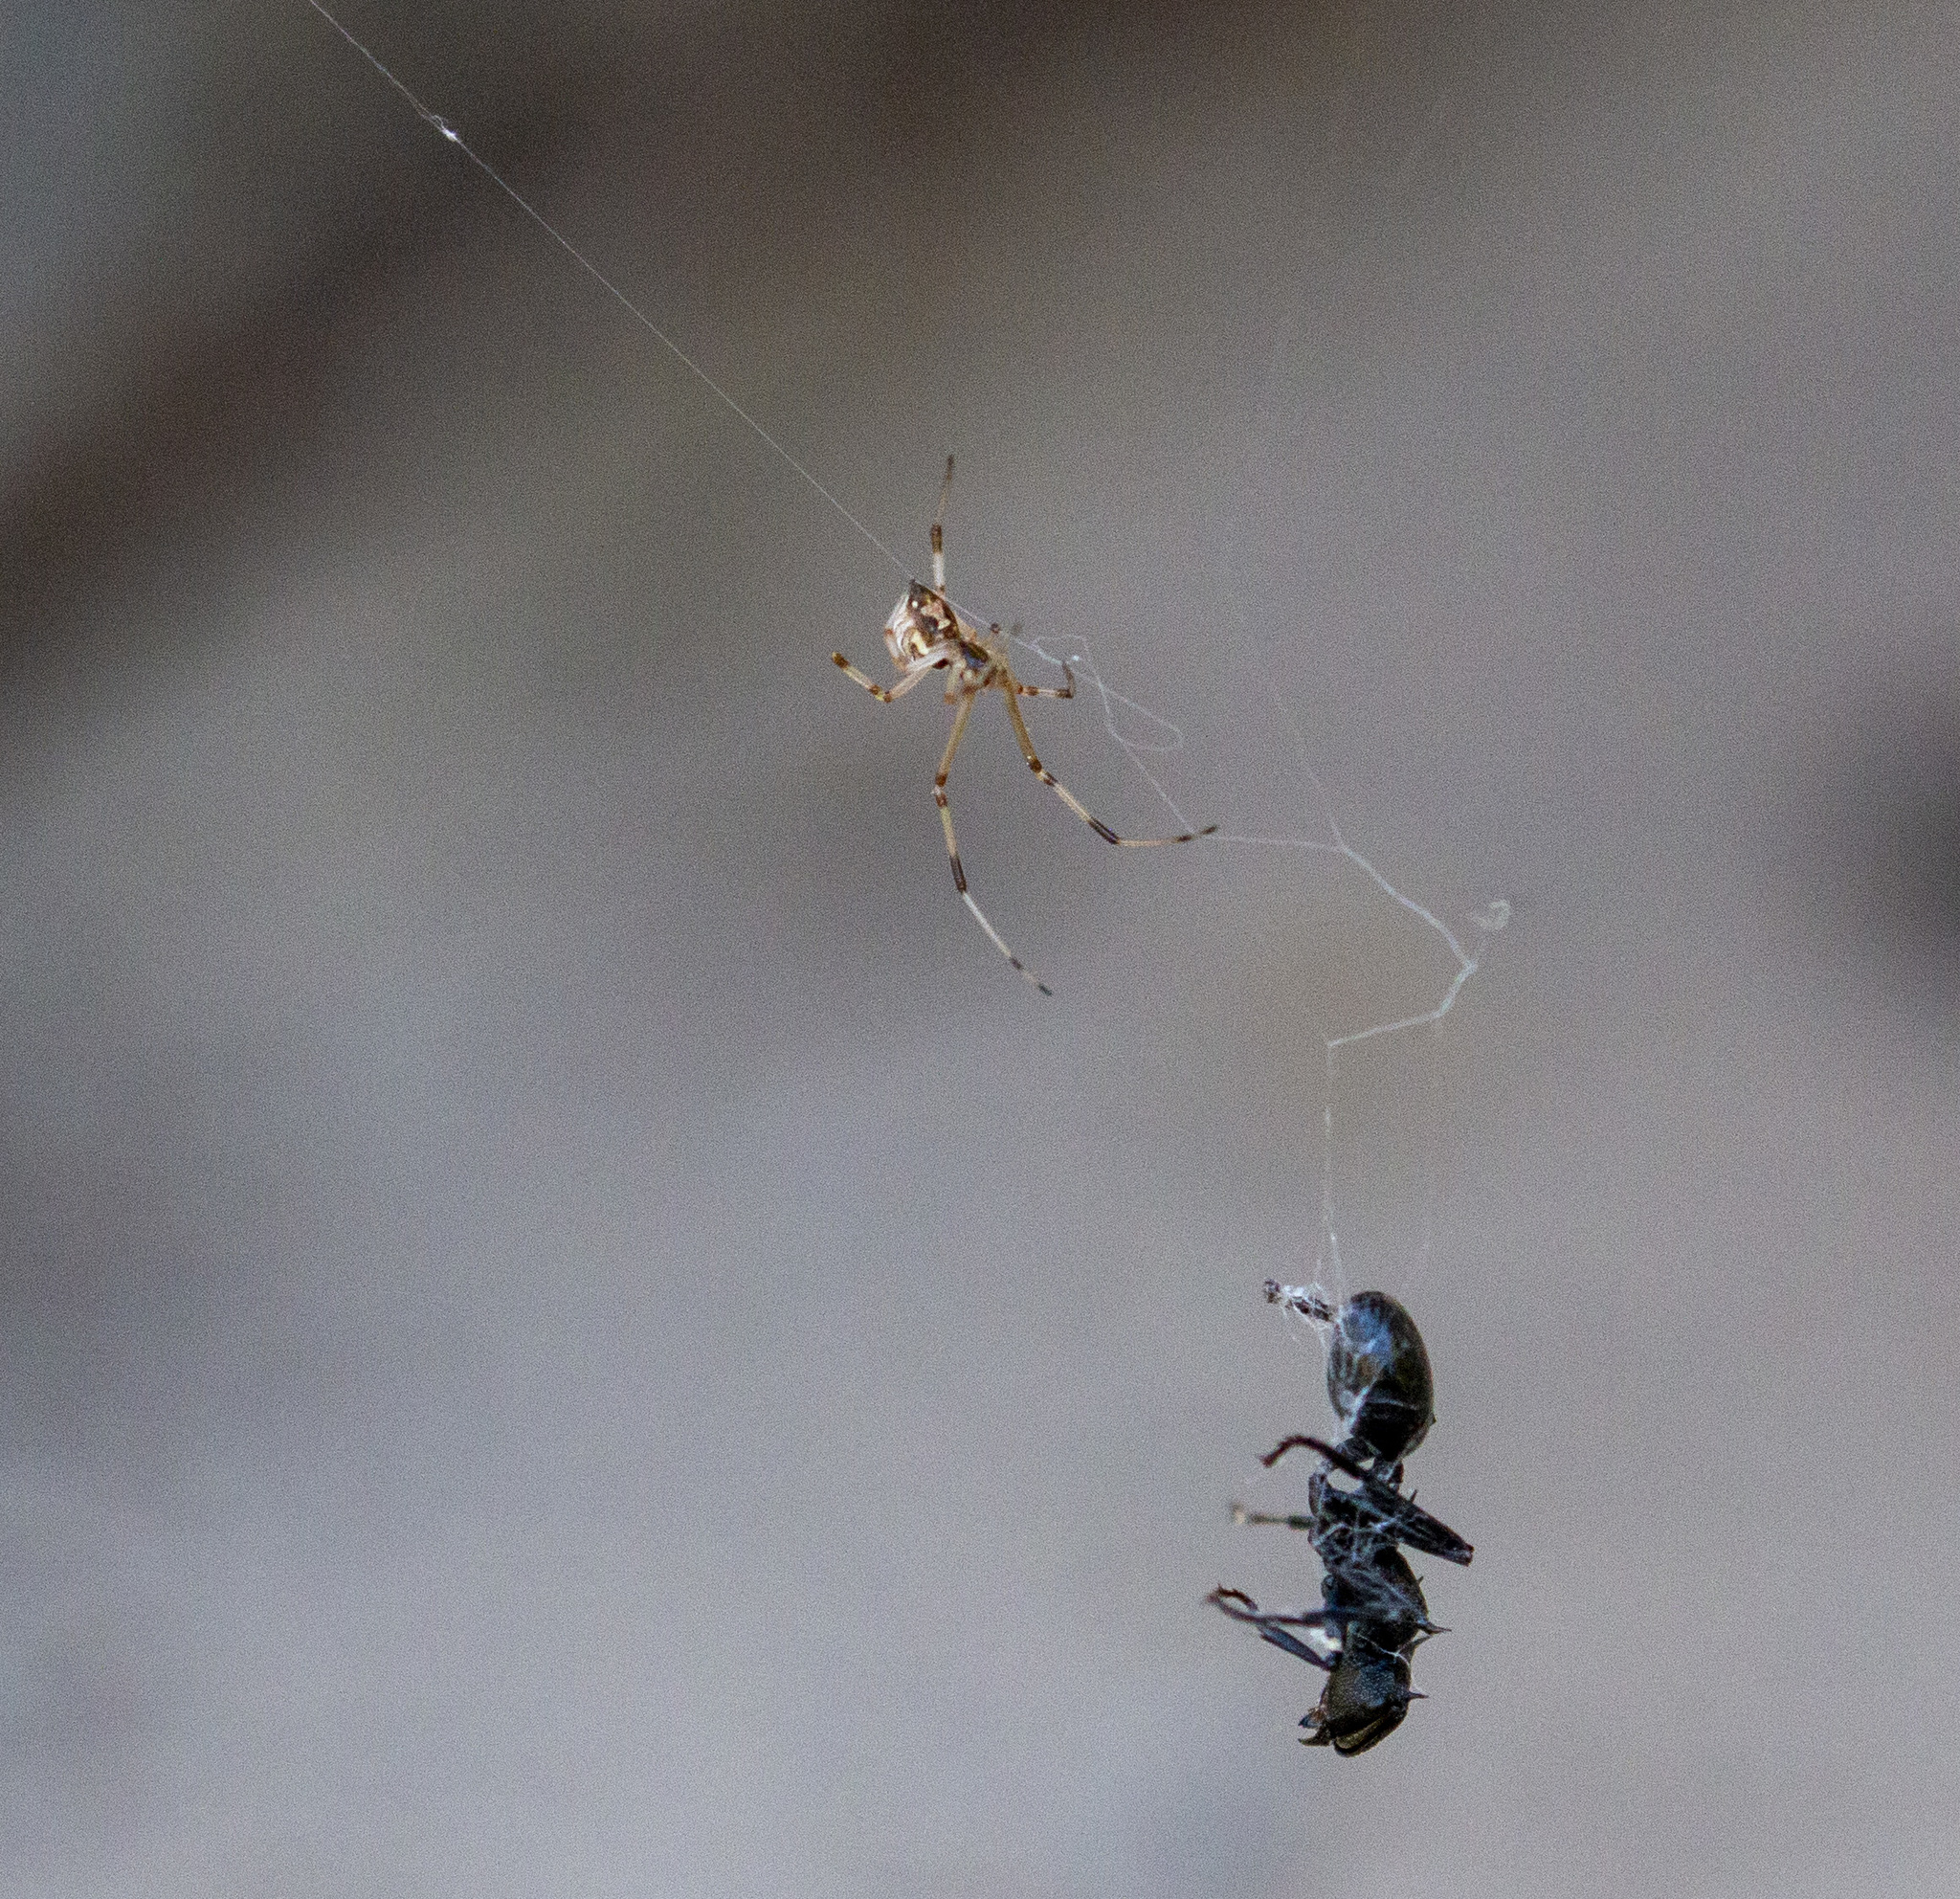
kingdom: Animalia
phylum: Arthropoda
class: Arachnida
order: Araneae
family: Theridiidae
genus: Latrodectus
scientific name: Latrodectus geometricus
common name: Brown widow spider
